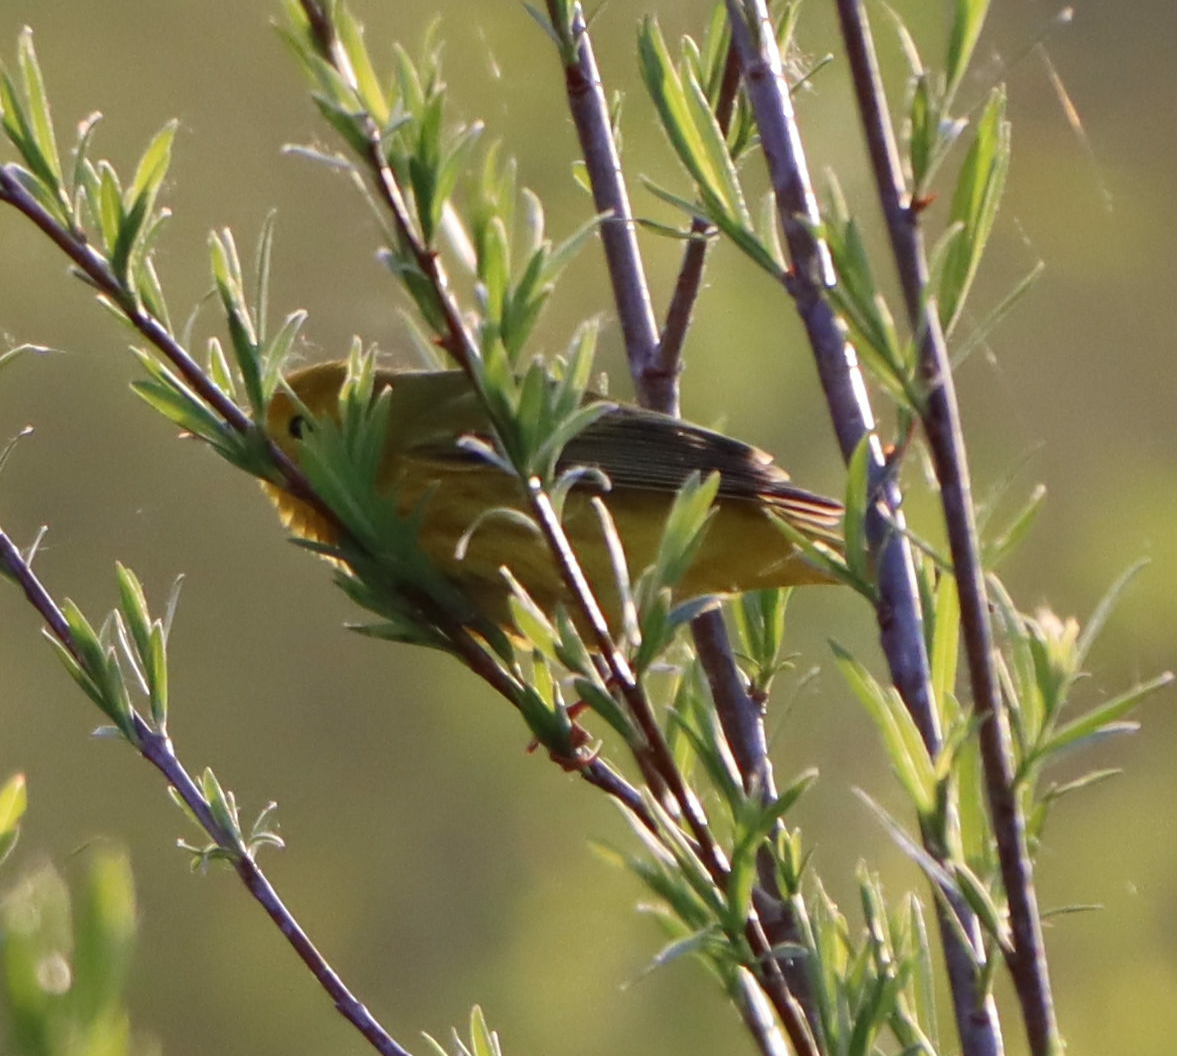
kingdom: Animalia
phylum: Chordata
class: Aves
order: Passeriformes
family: Parulidae
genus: Setophaga
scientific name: Setophaga petechia
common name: Yellow warbler
